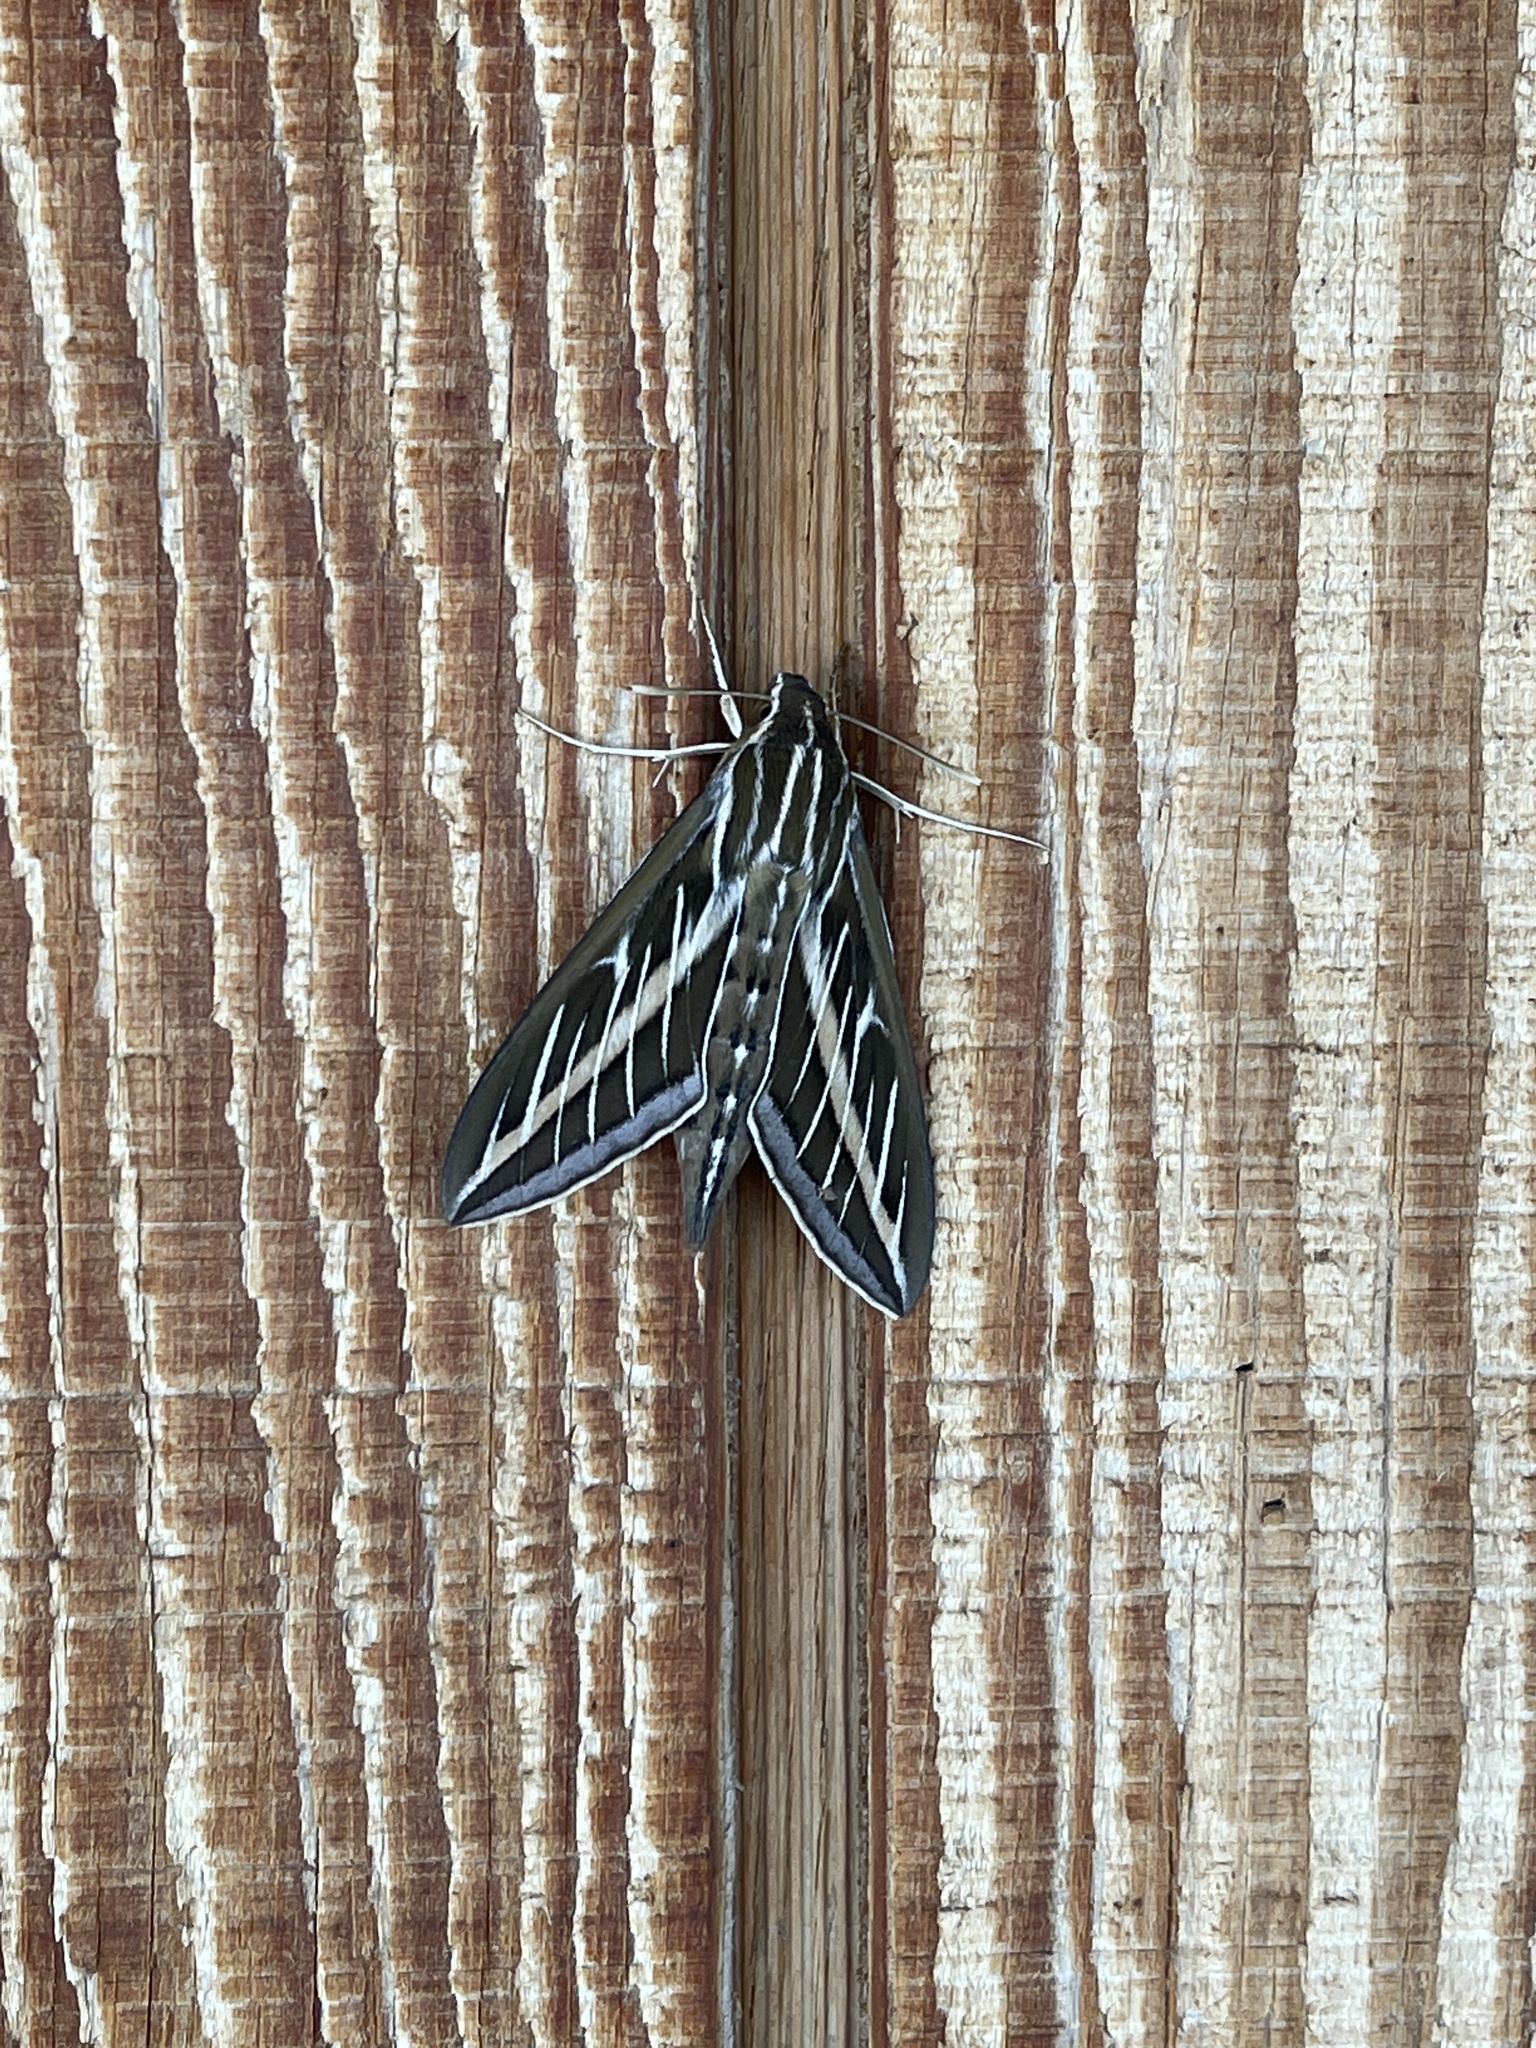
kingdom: Animalia
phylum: Arthropoda
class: Insecta
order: Lepidoptera
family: Sphingidae
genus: Hyles
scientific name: Hyles lineata
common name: White-lined sphinx
